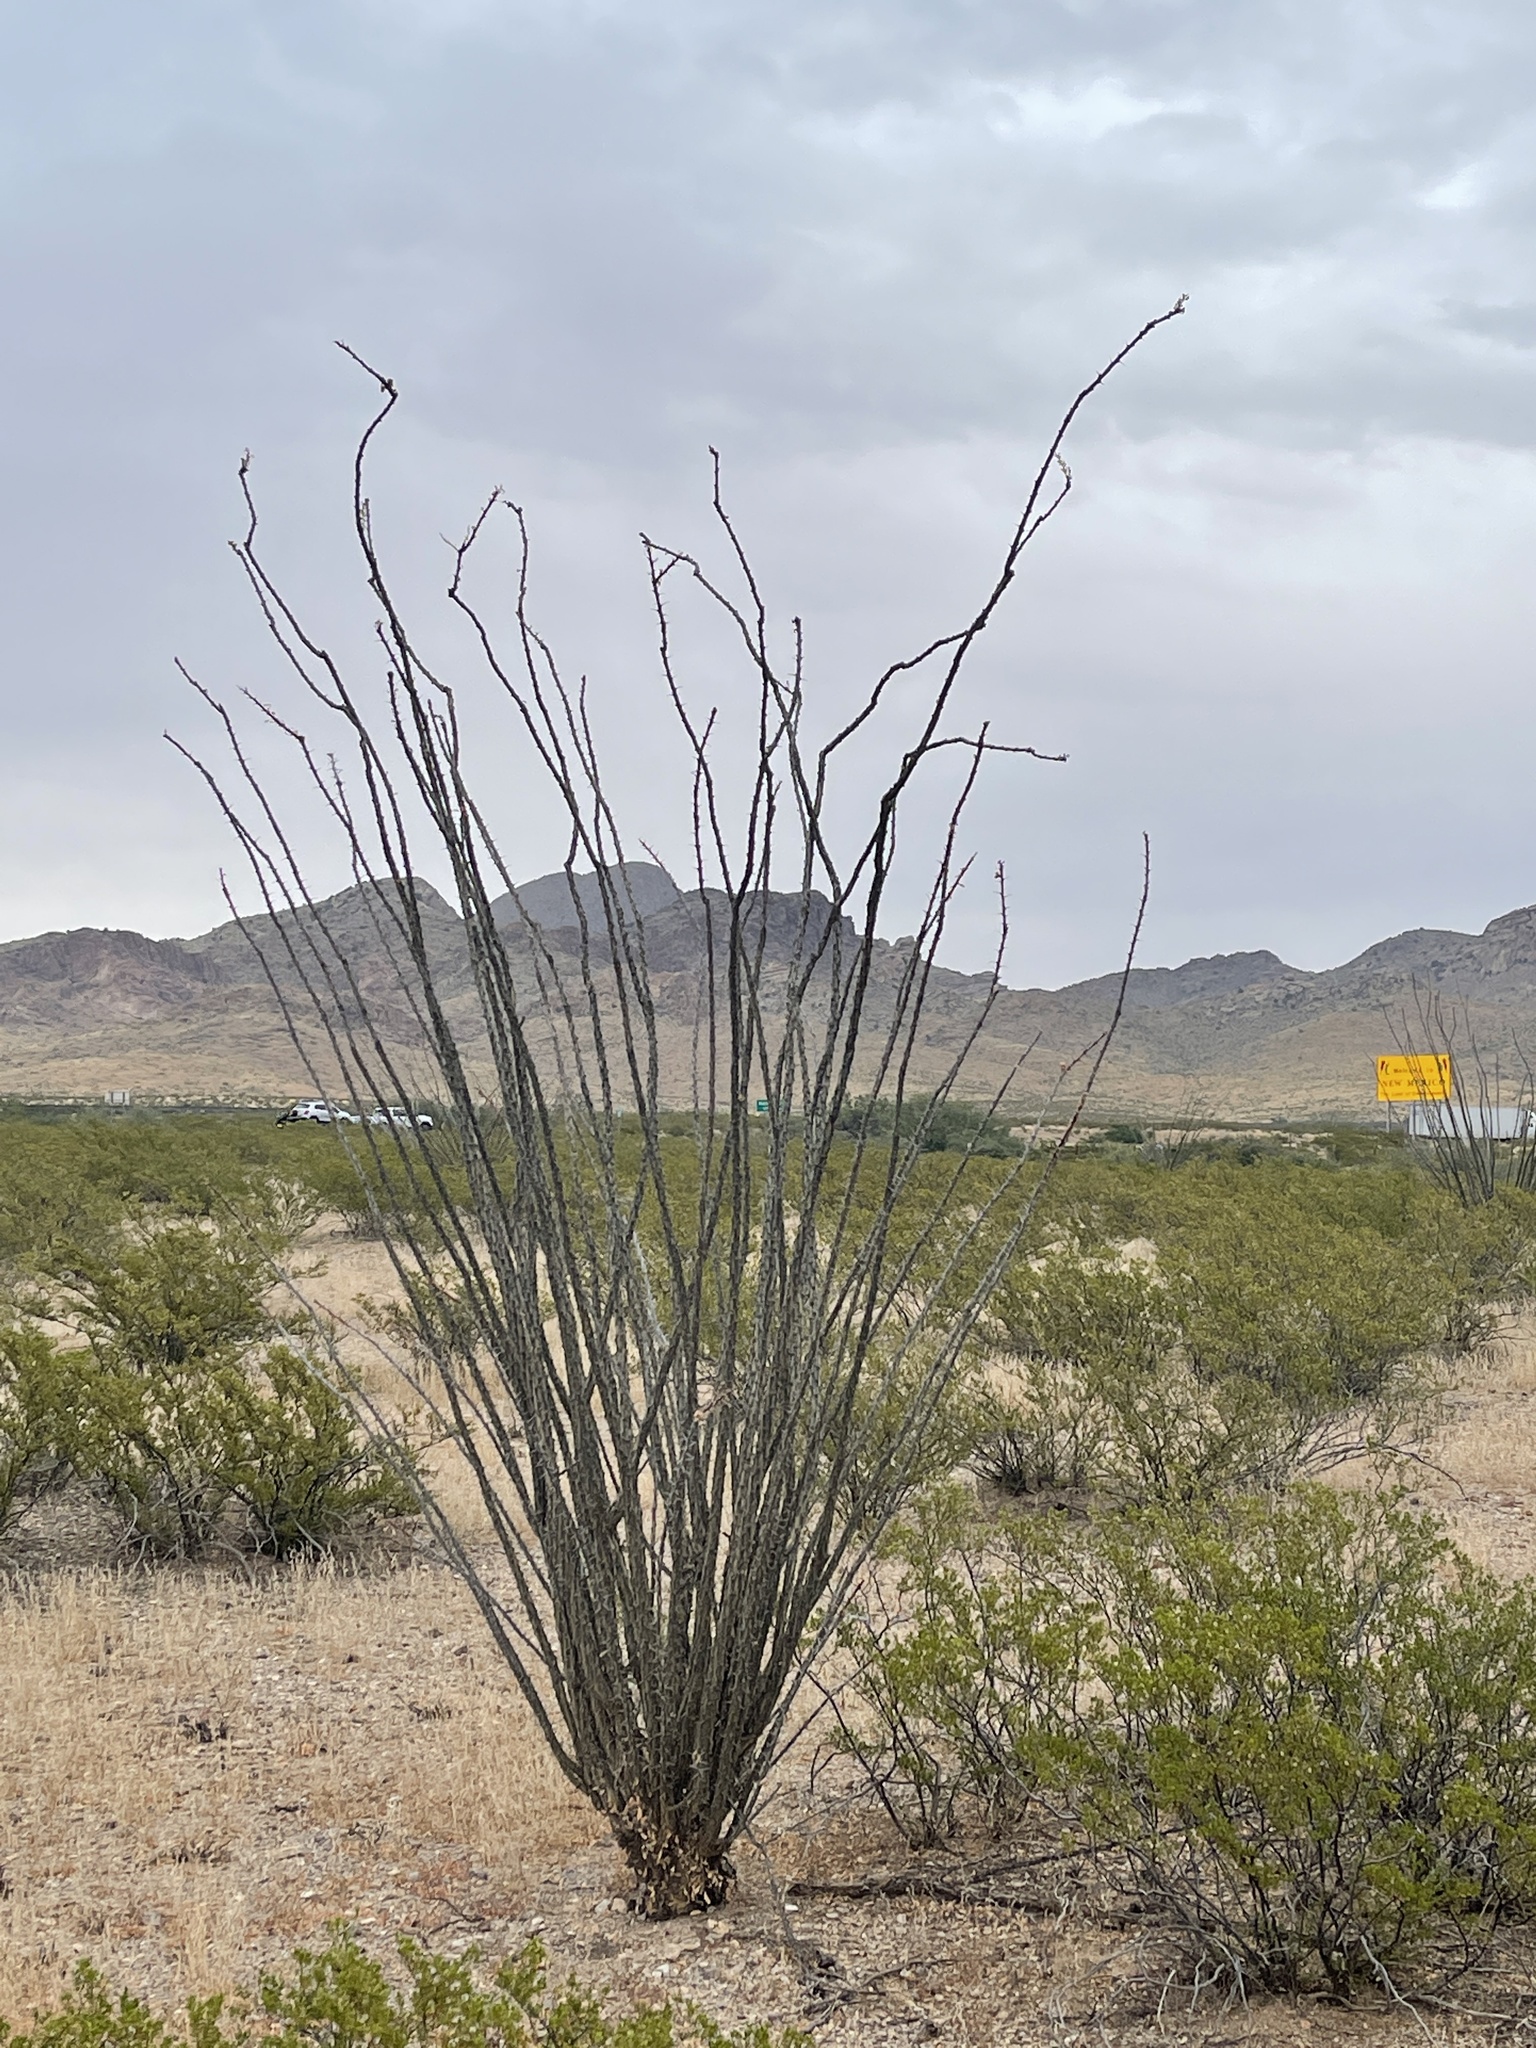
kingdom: Plantae
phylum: Tracheophyta
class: Magnoliopsida
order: Ericales
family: Fouquieriaceae
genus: Fouquieria
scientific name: Fouquieria splendens
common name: Vine-cactus
